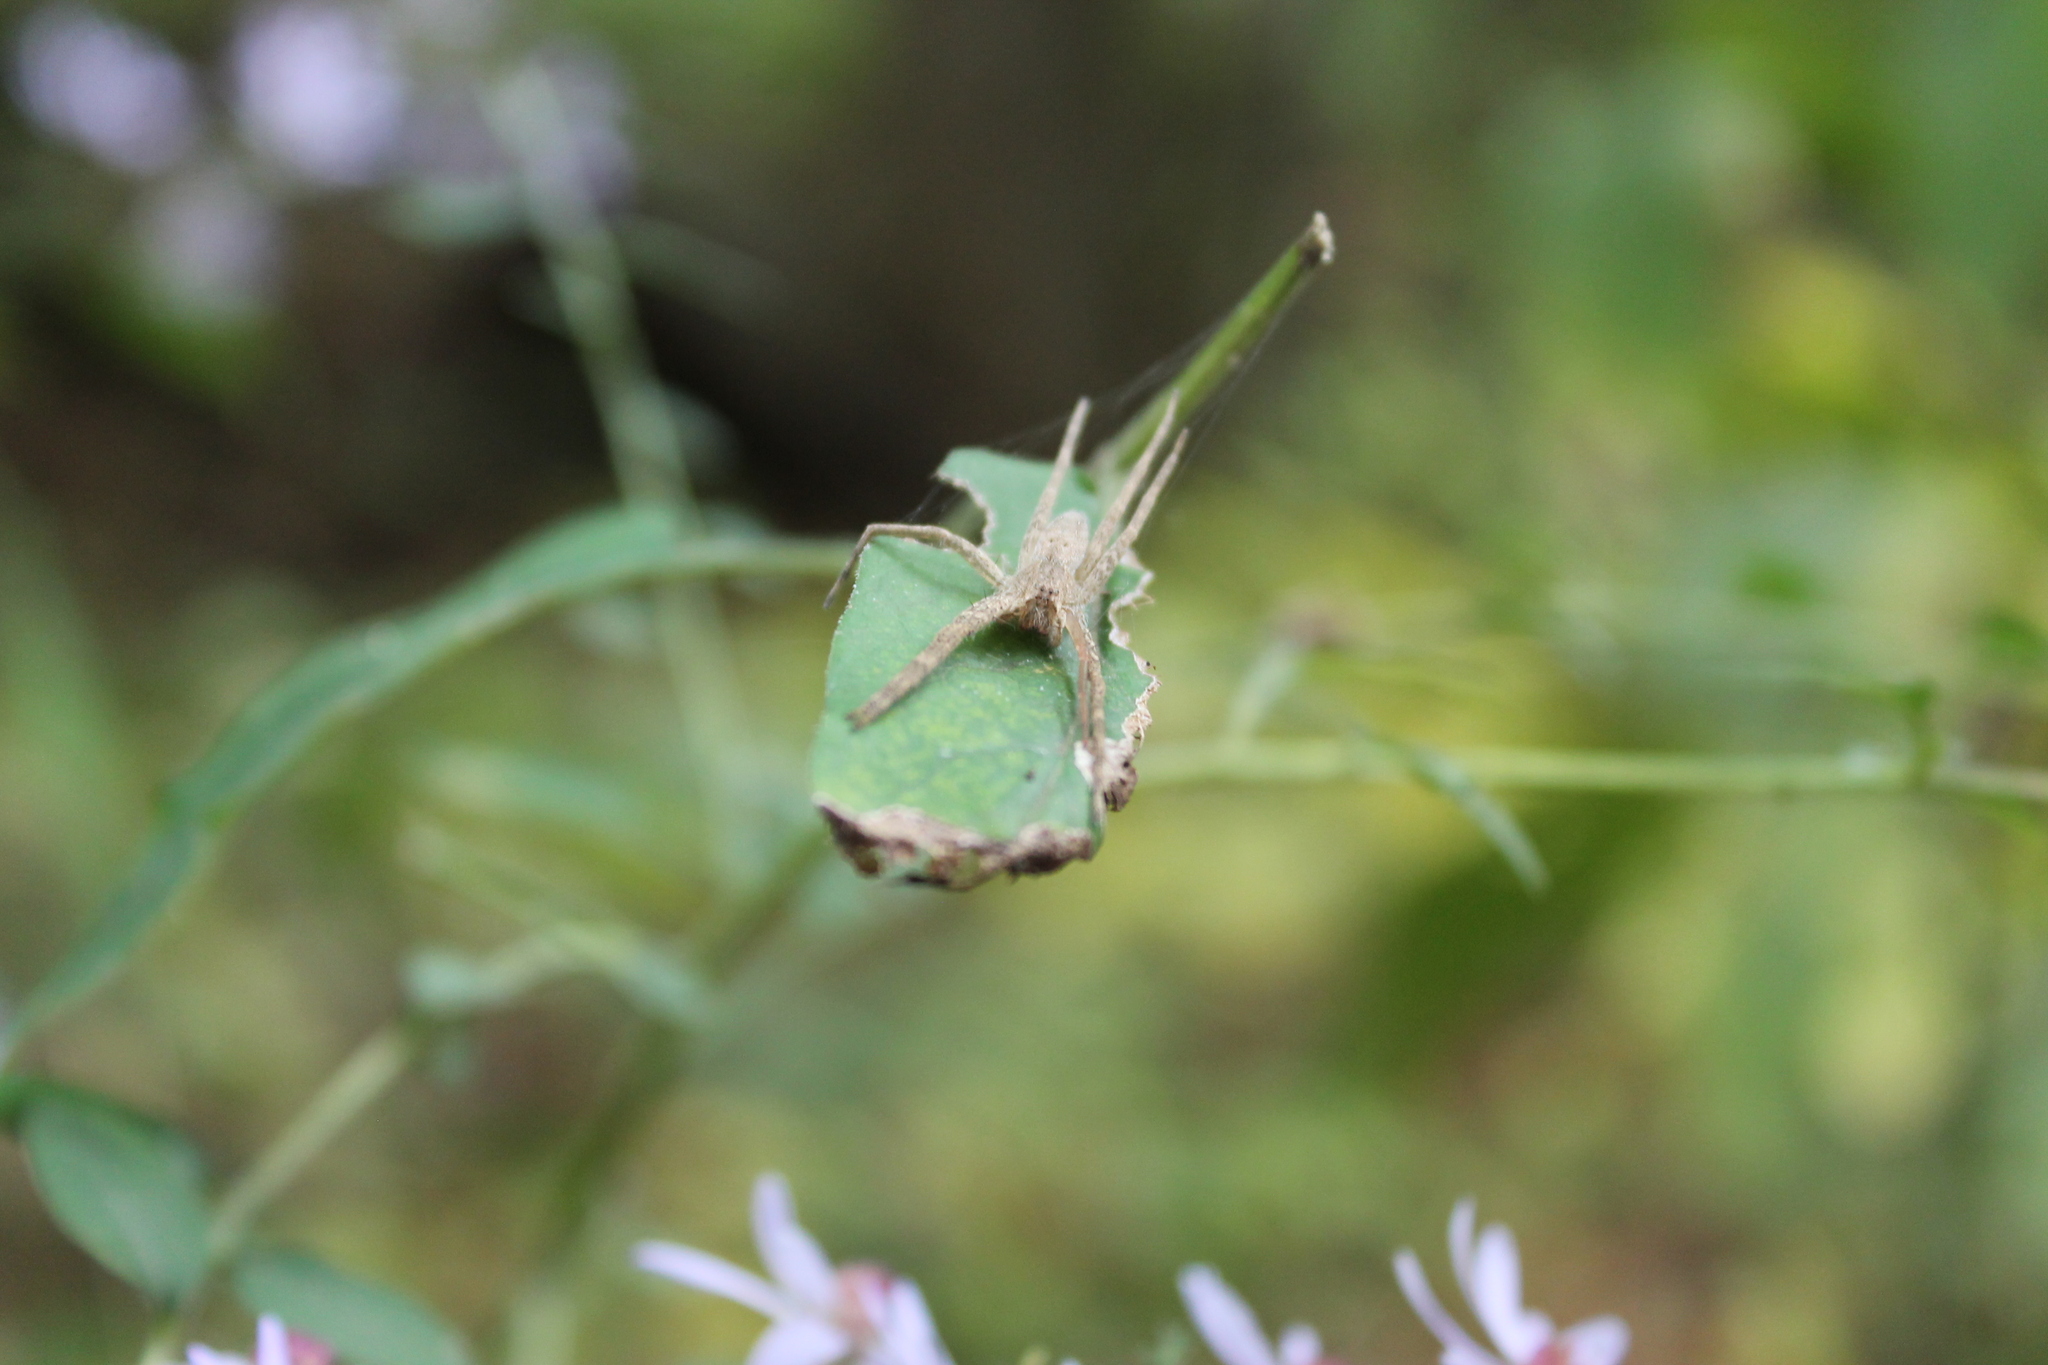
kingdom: Animalia
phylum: Arthropoda
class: Arachnida
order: Araneae
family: Pisauridae
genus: Pisaurina
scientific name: Pisaurina mira
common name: American nursery web spider
